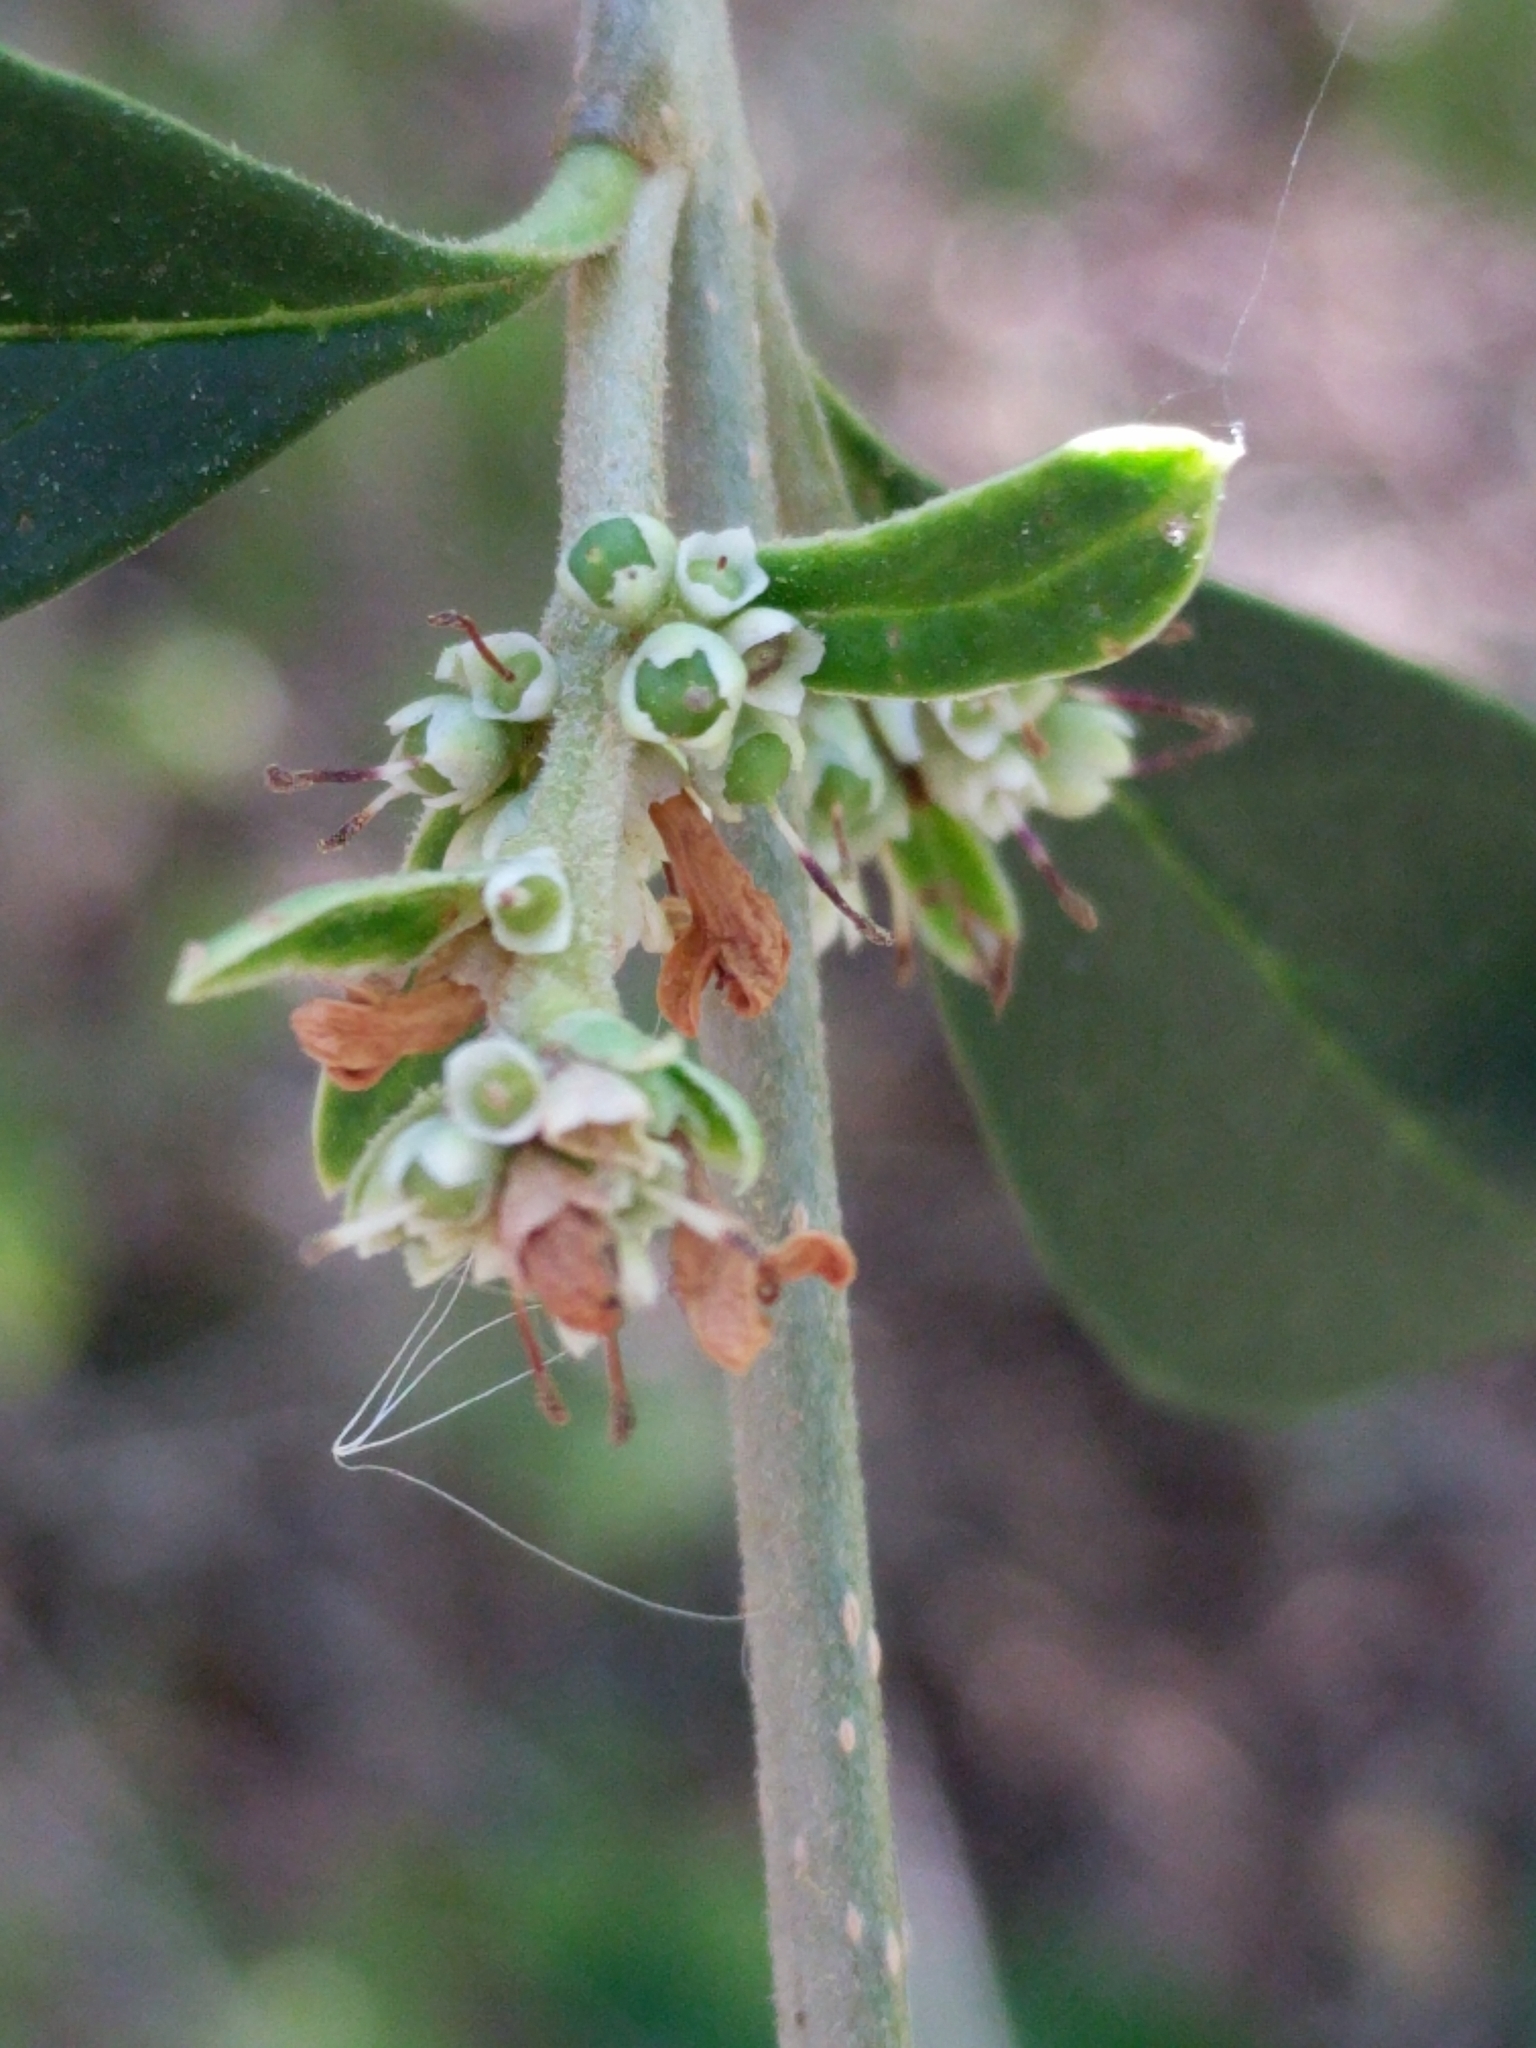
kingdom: Plantae
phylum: Tracheophyta
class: Magnoliopsida
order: Lamiales
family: Oleaceae
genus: Ligustrum
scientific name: Ligustrum quihoui
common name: Waxyleaf privet
